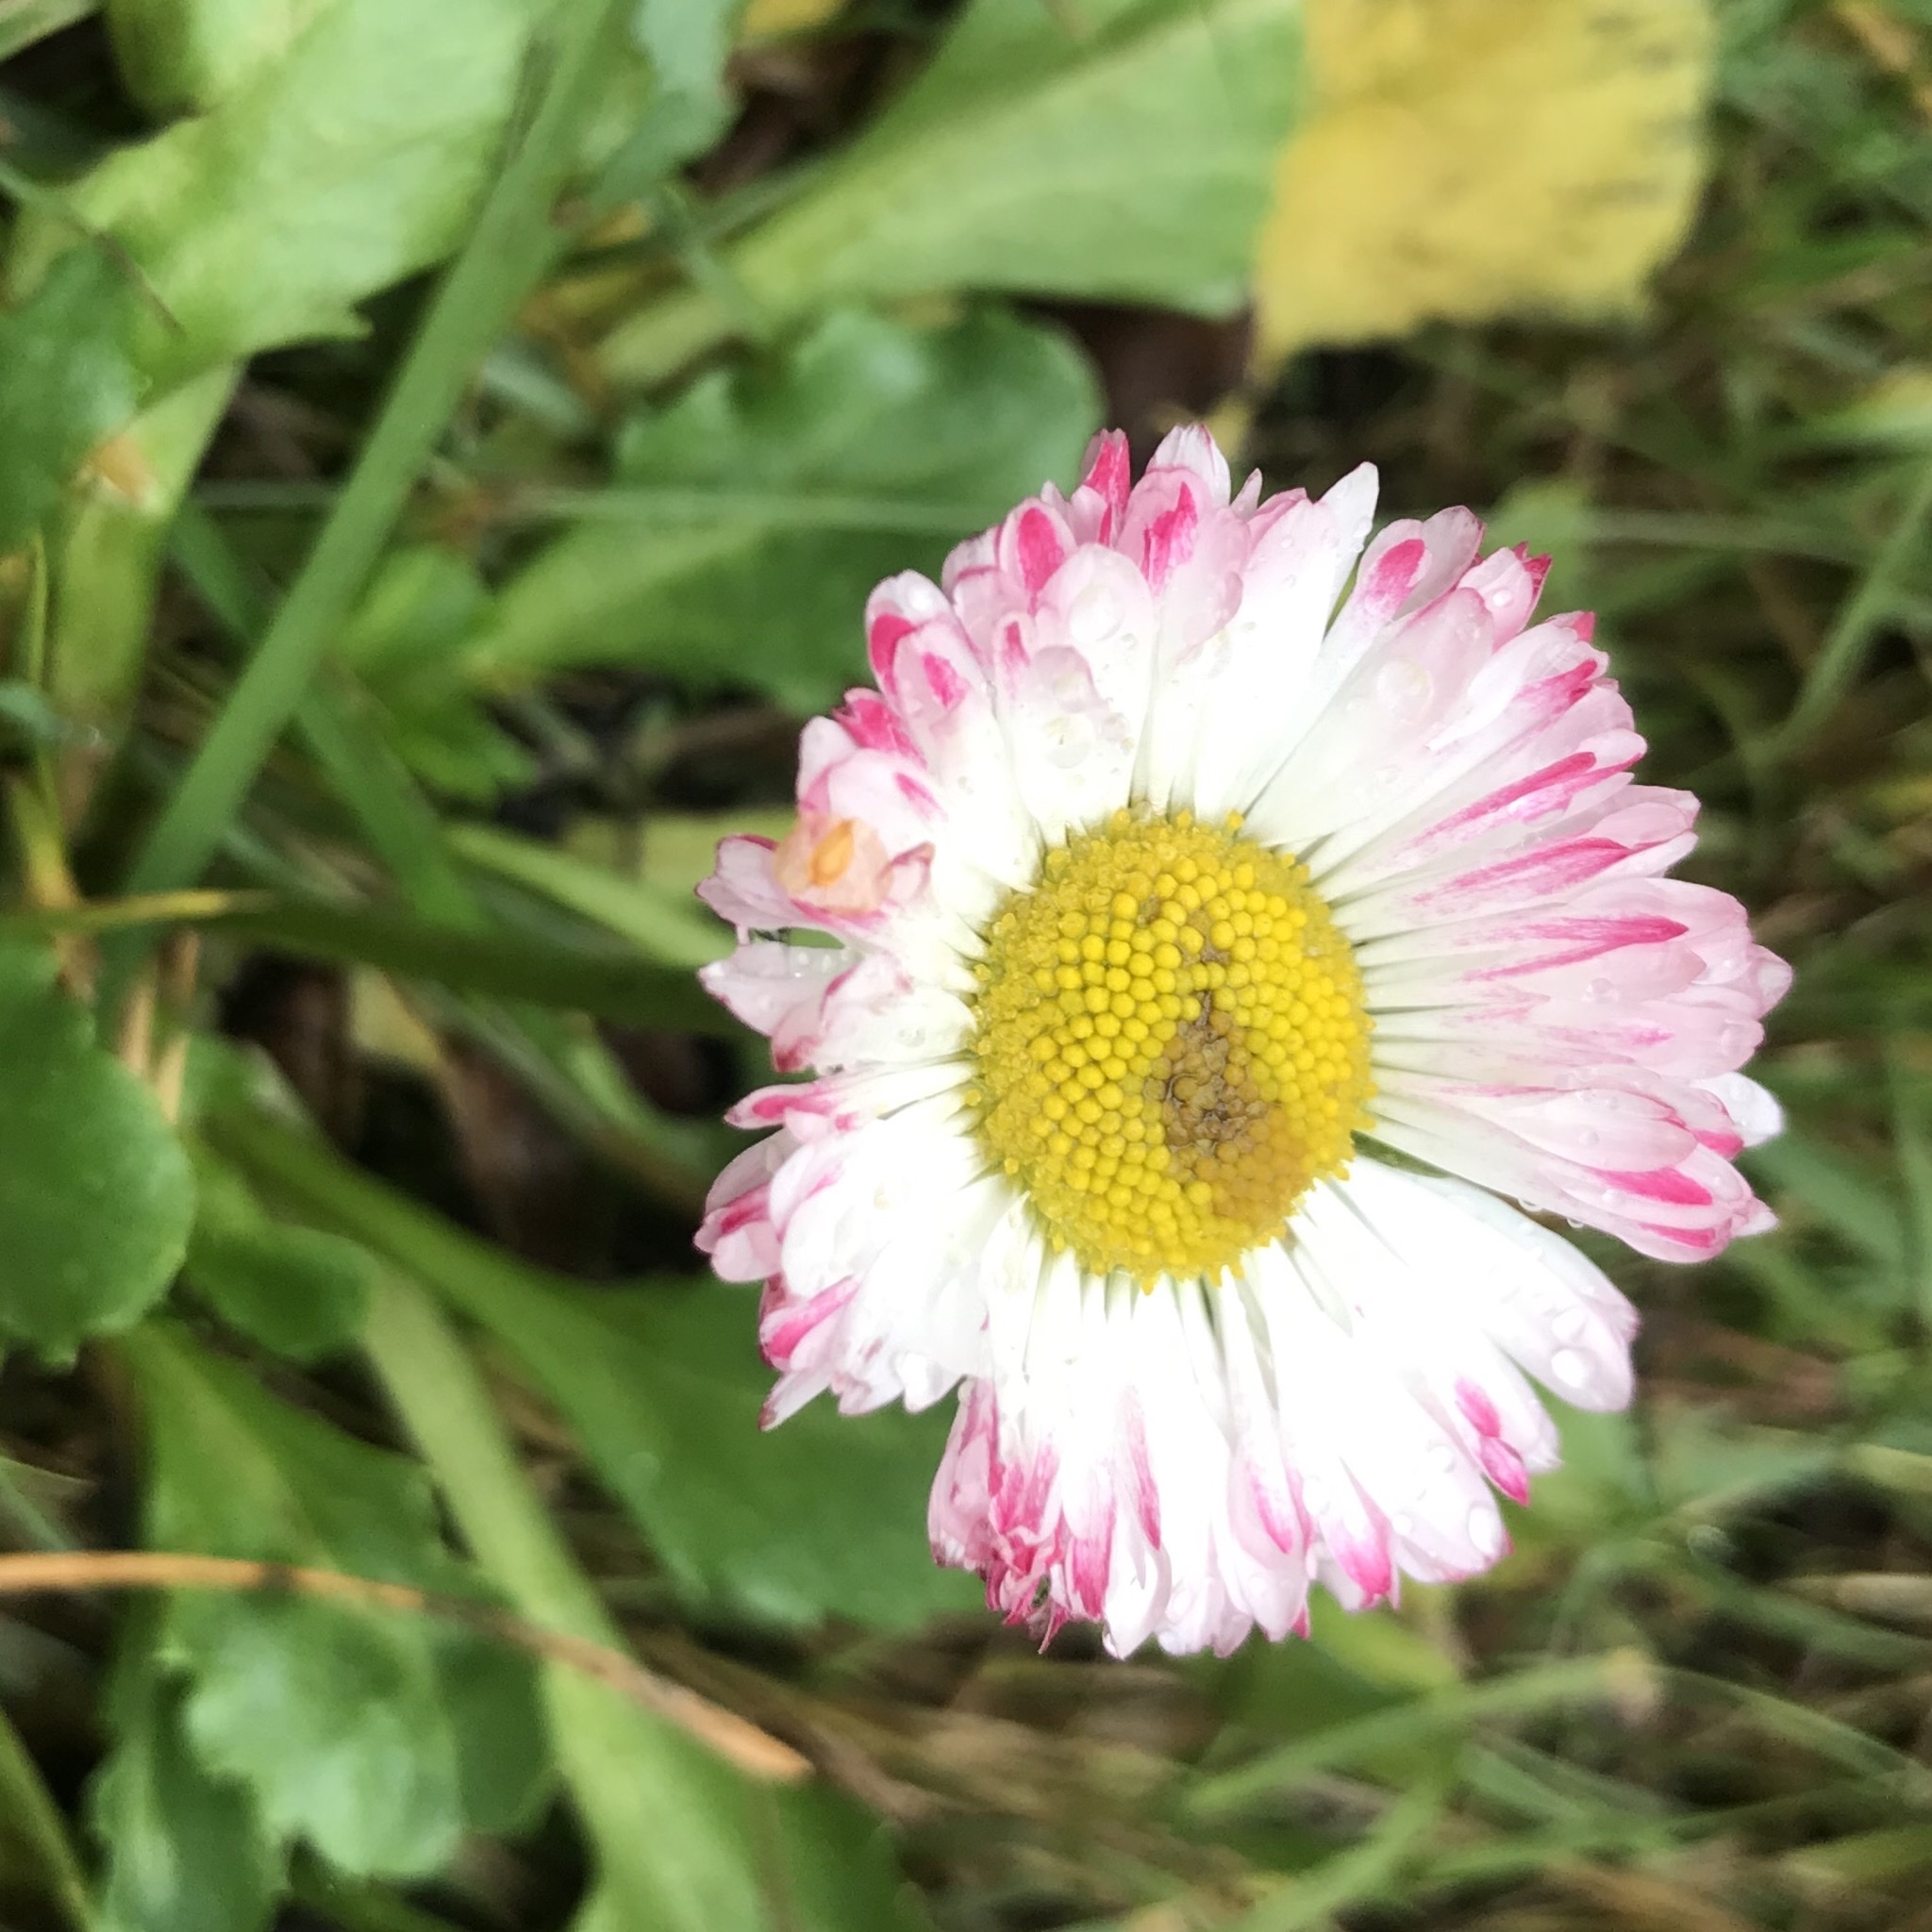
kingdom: Plantae
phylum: Tracheophyta
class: Magnoliopsida
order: Asterales
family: Asteraceae
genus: Bellis
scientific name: Bellis perennis
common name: Lawndaisy
